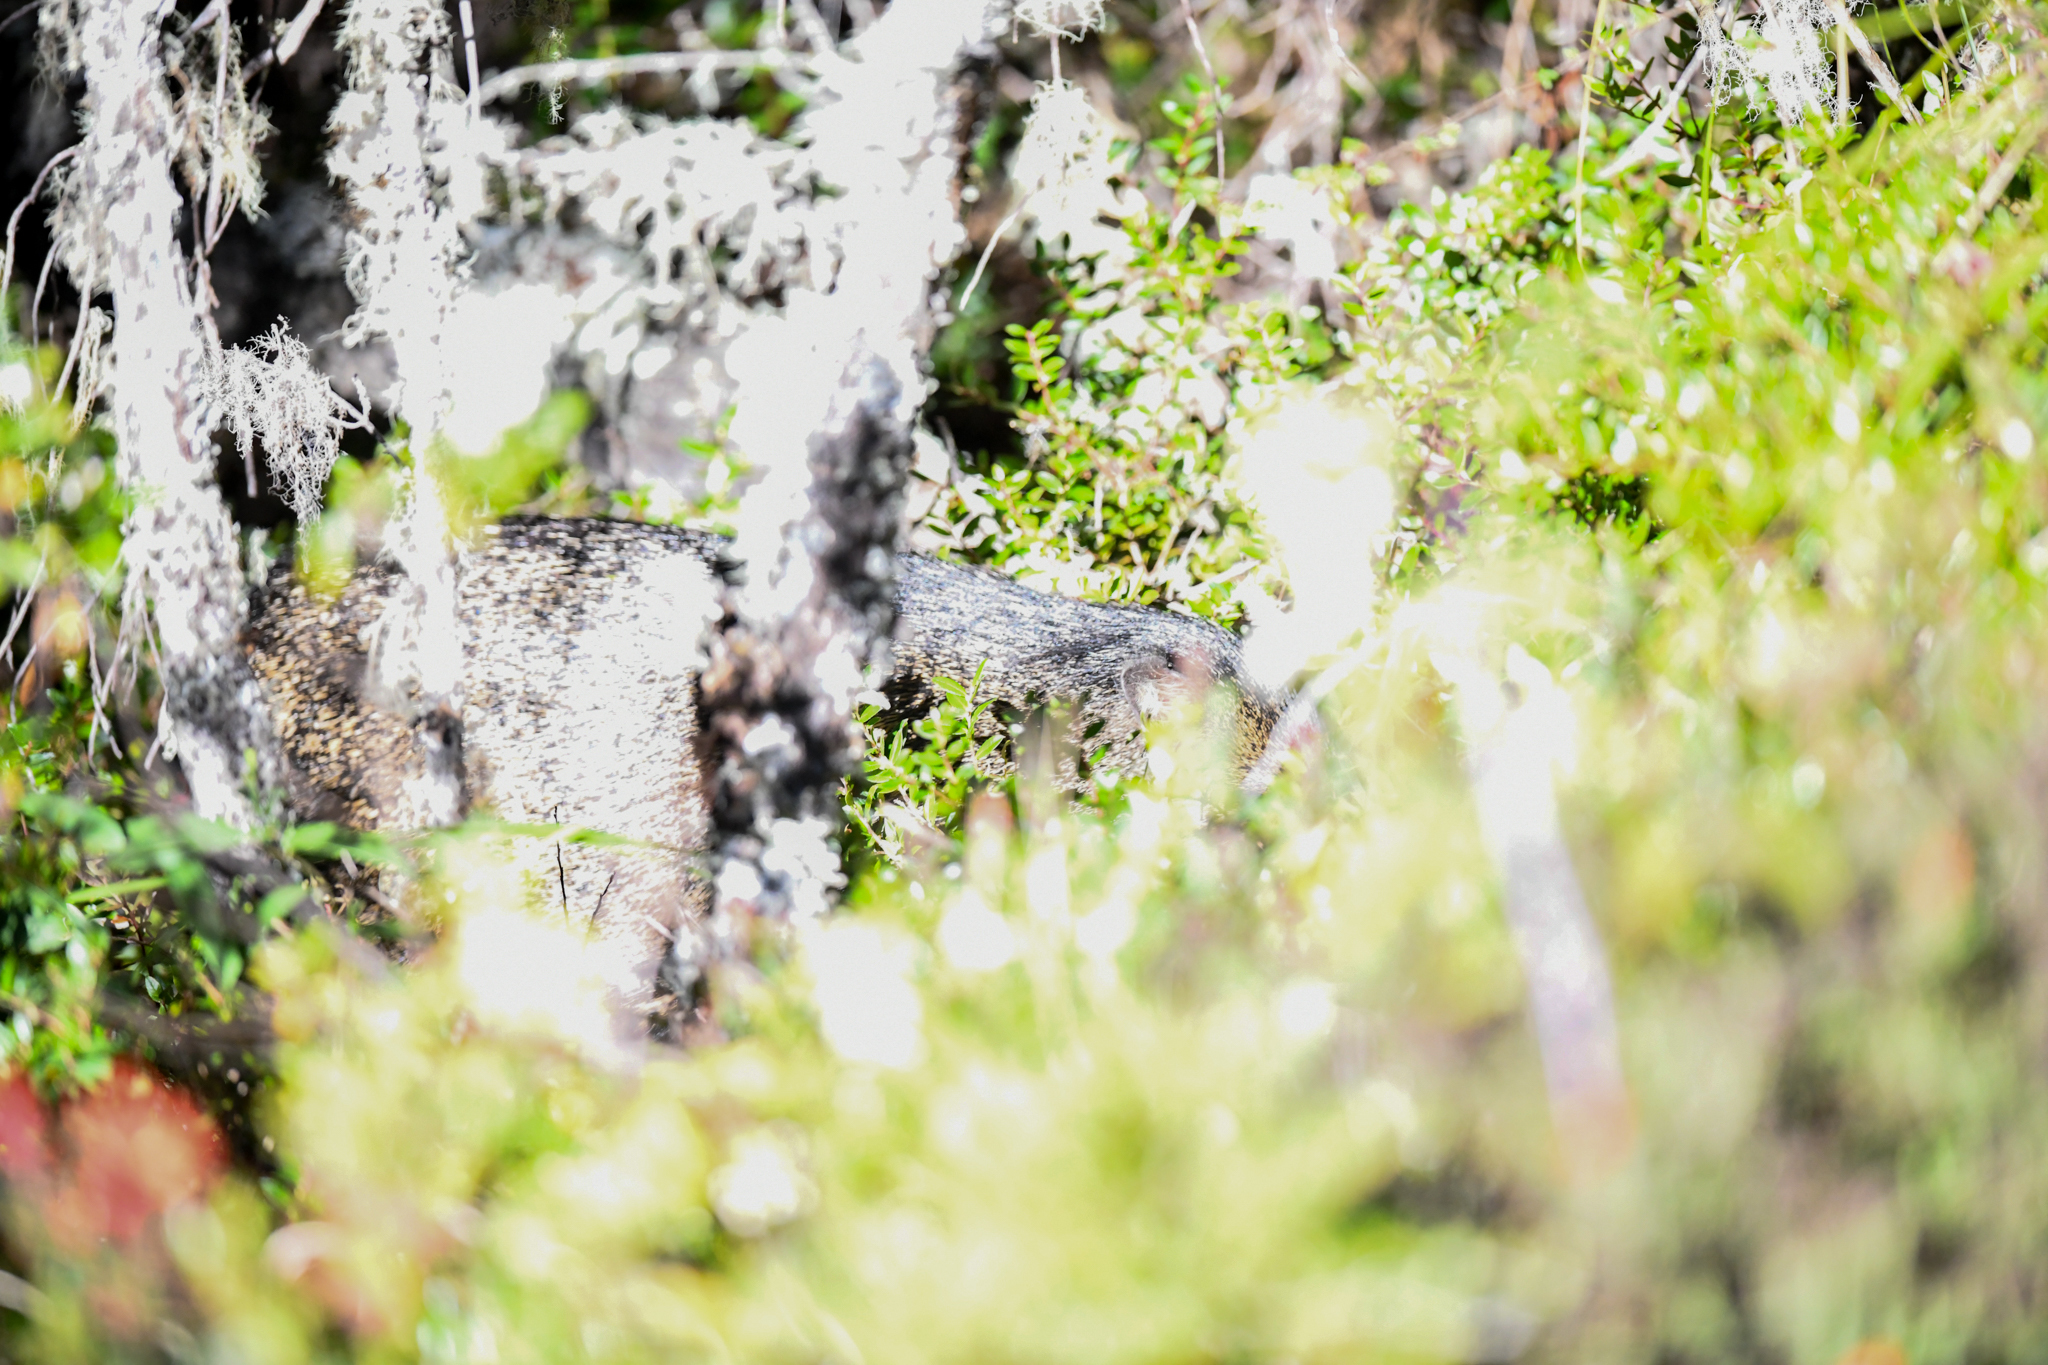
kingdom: Animalia
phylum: Chordata
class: Mammalia
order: Artiodactyla
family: Tayassuidae
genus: Pecari
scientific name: Pecari tajacu
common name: Collared peccary
